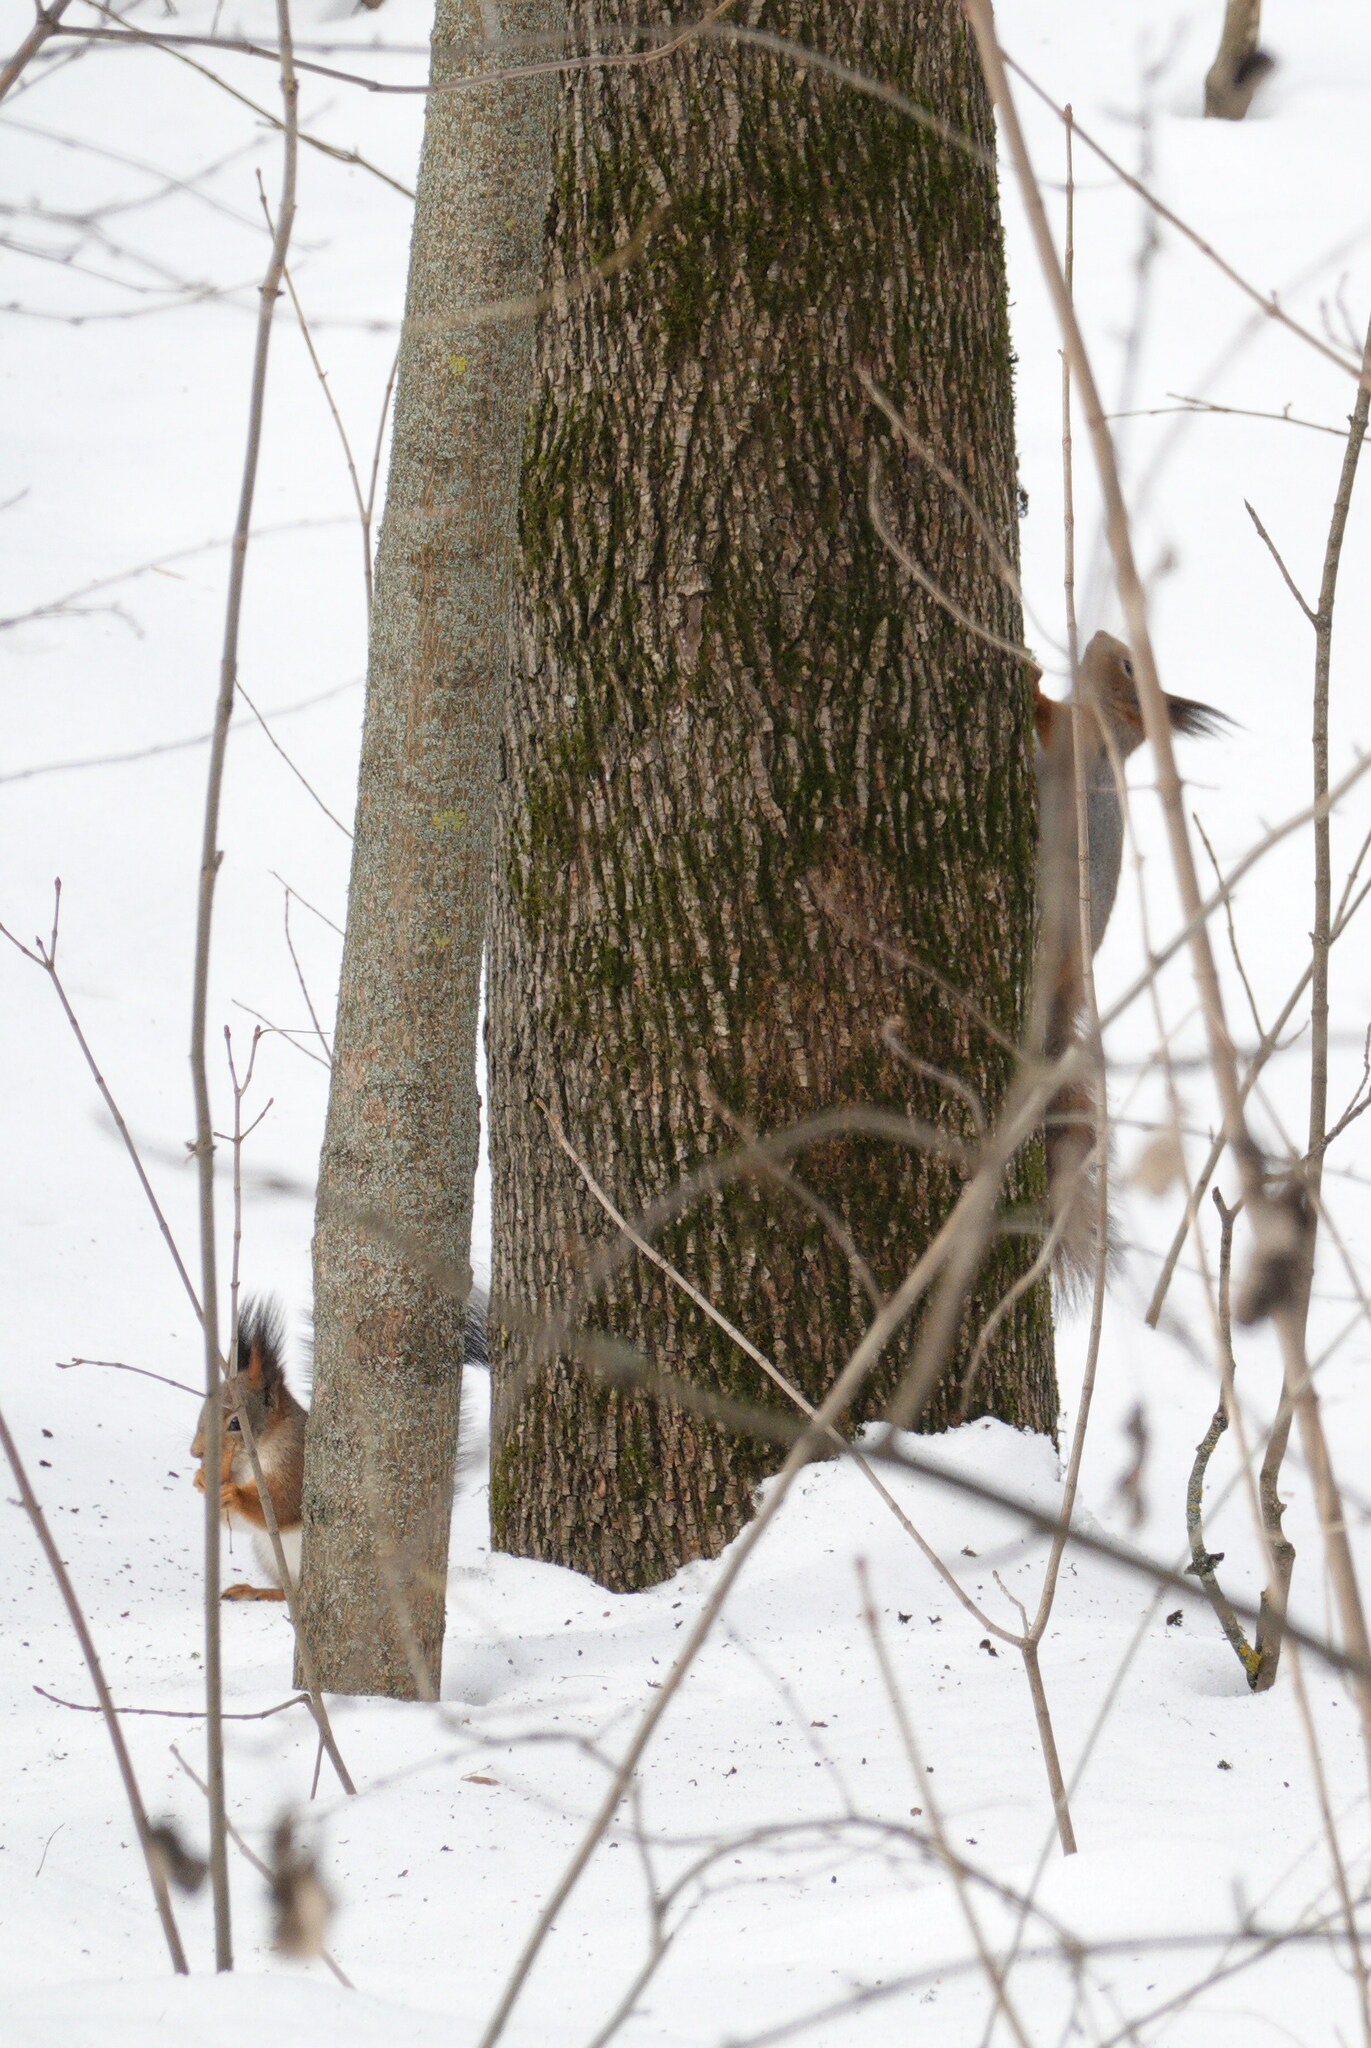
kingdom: Animalia
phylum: Chordata
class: Mammalia
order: Rodentia
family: Sciuridae
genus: Sciurus
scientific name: Sciurus vulgaris
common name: Eurasian red squirrel
